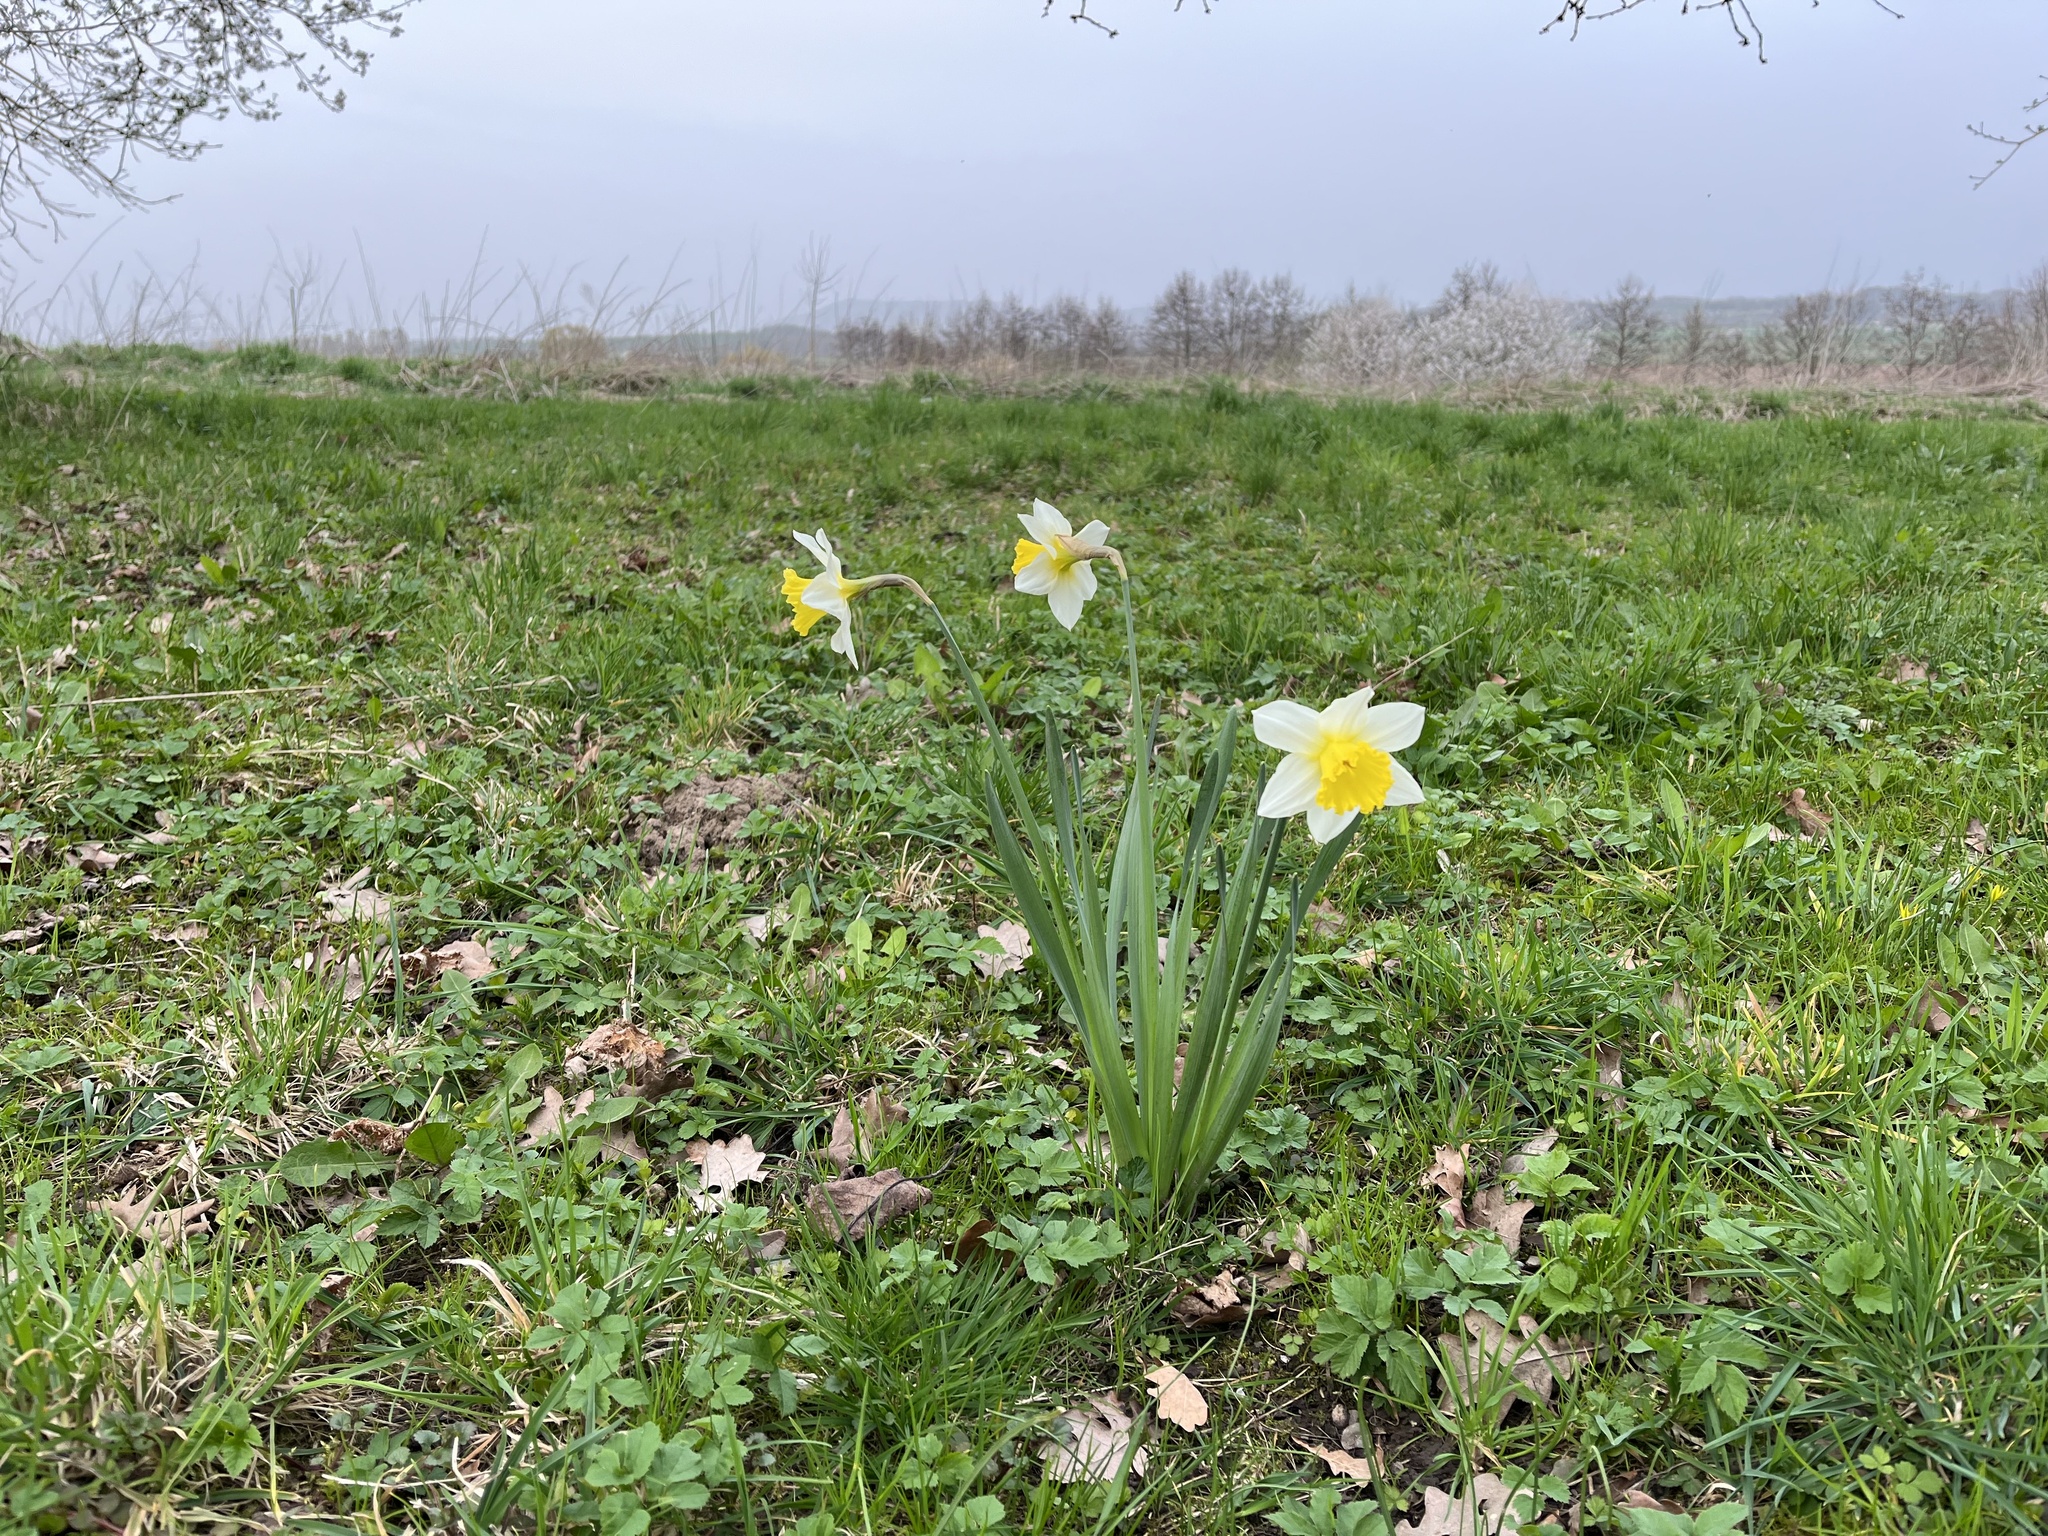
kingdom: Plantae
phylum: Tracheophyta
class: Liliopsida
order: Asparagales
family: Amaryllidaceae
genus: Narcissus
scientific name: Narcissus pseudonarcissus
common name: Daffodil
